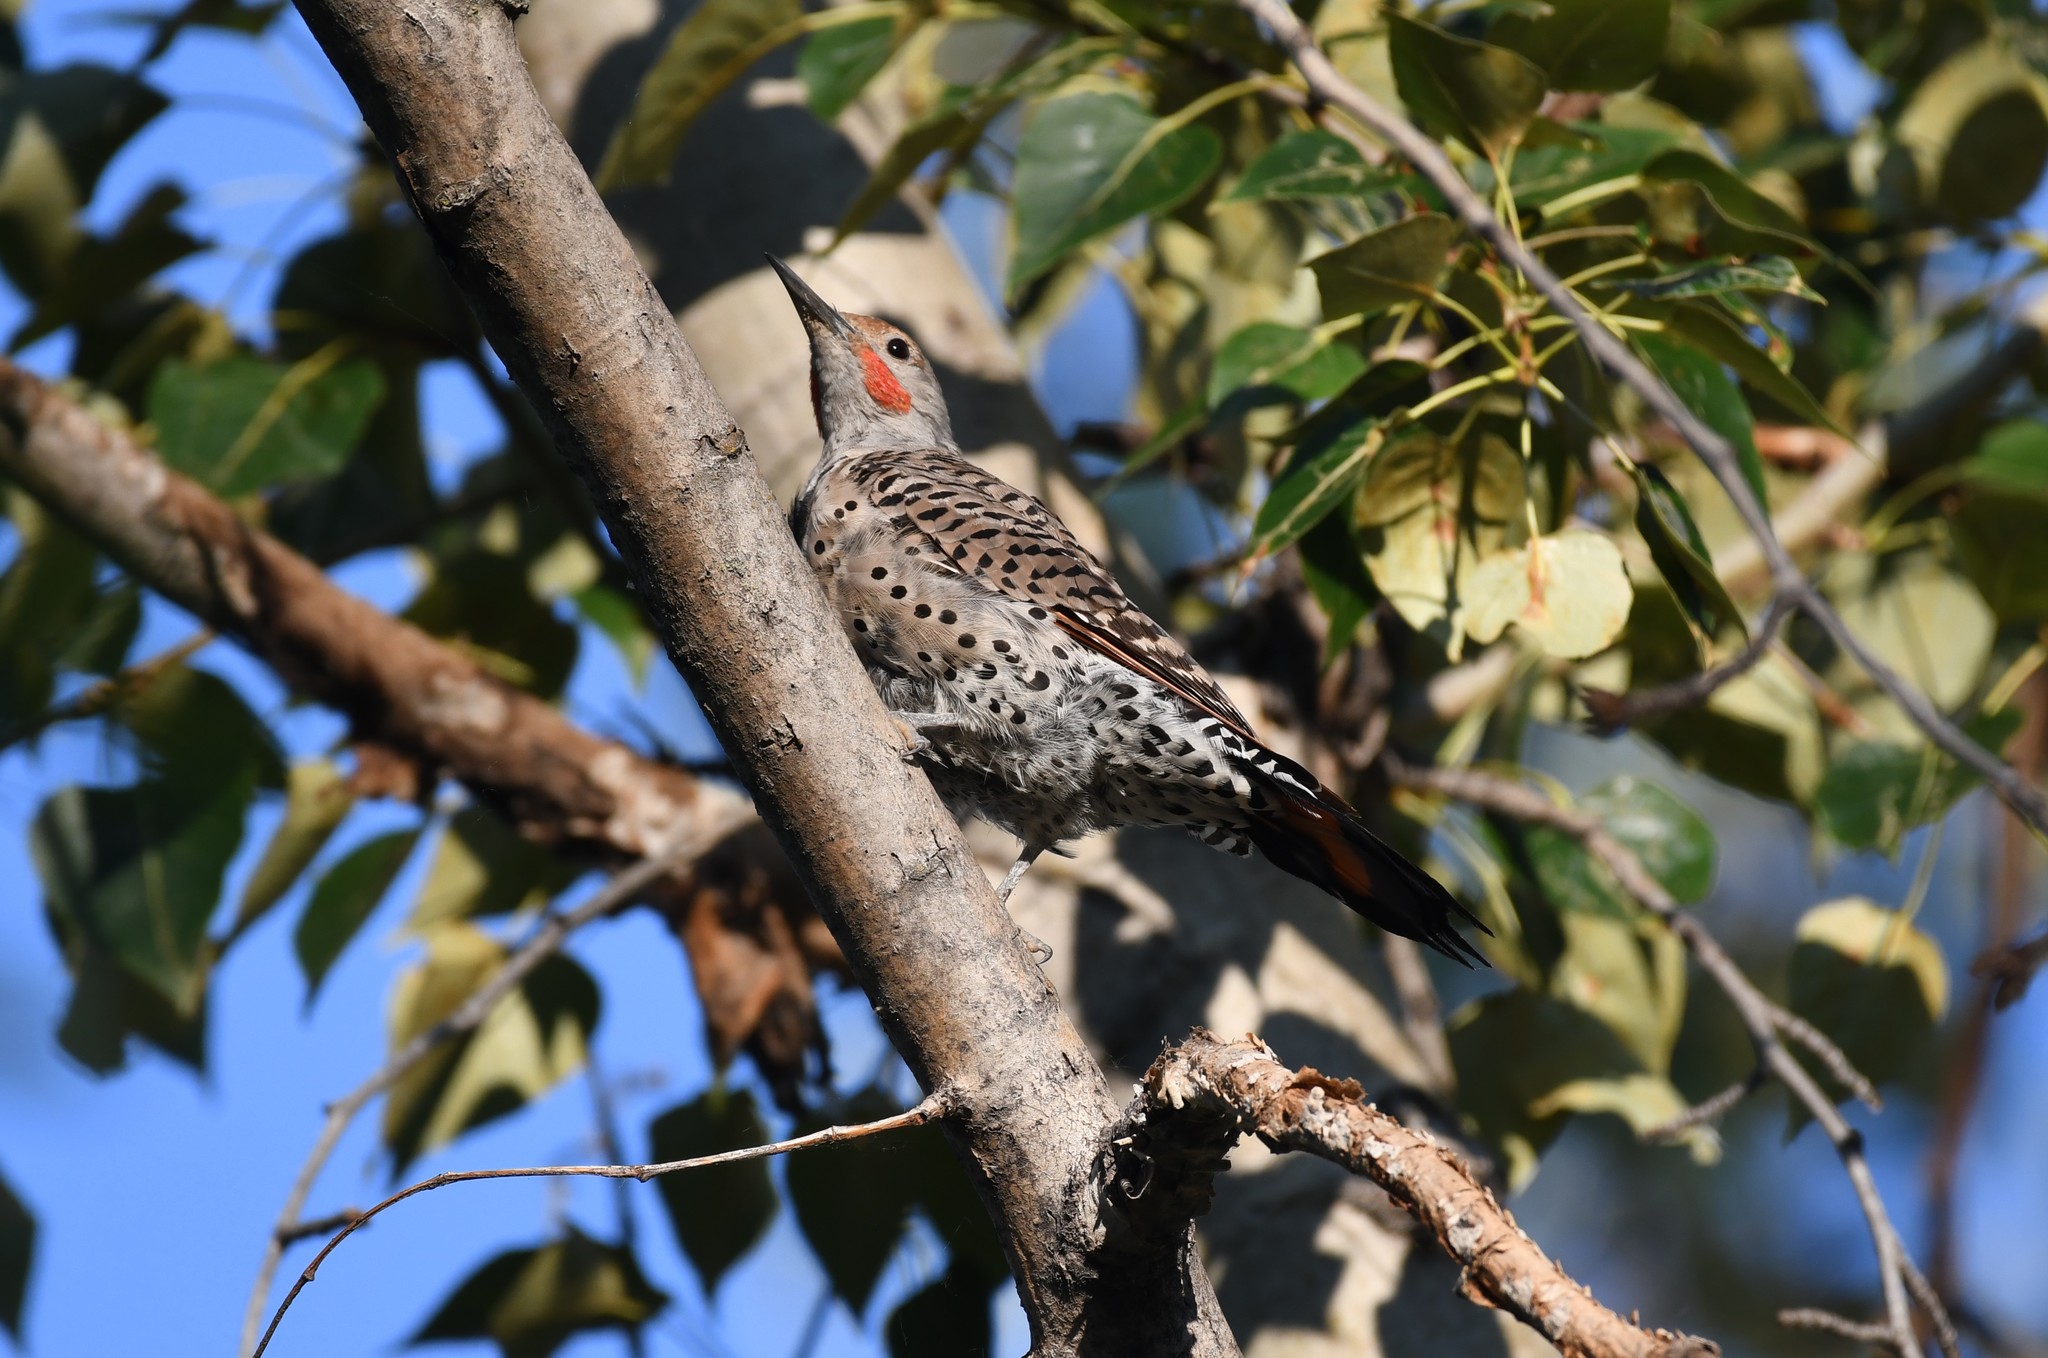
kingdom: Animalia
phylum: Chordata
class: Aves
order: Piciformes
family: Picidae
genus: Colaptes
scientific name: Colaptes auratus
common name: Northern flicker
